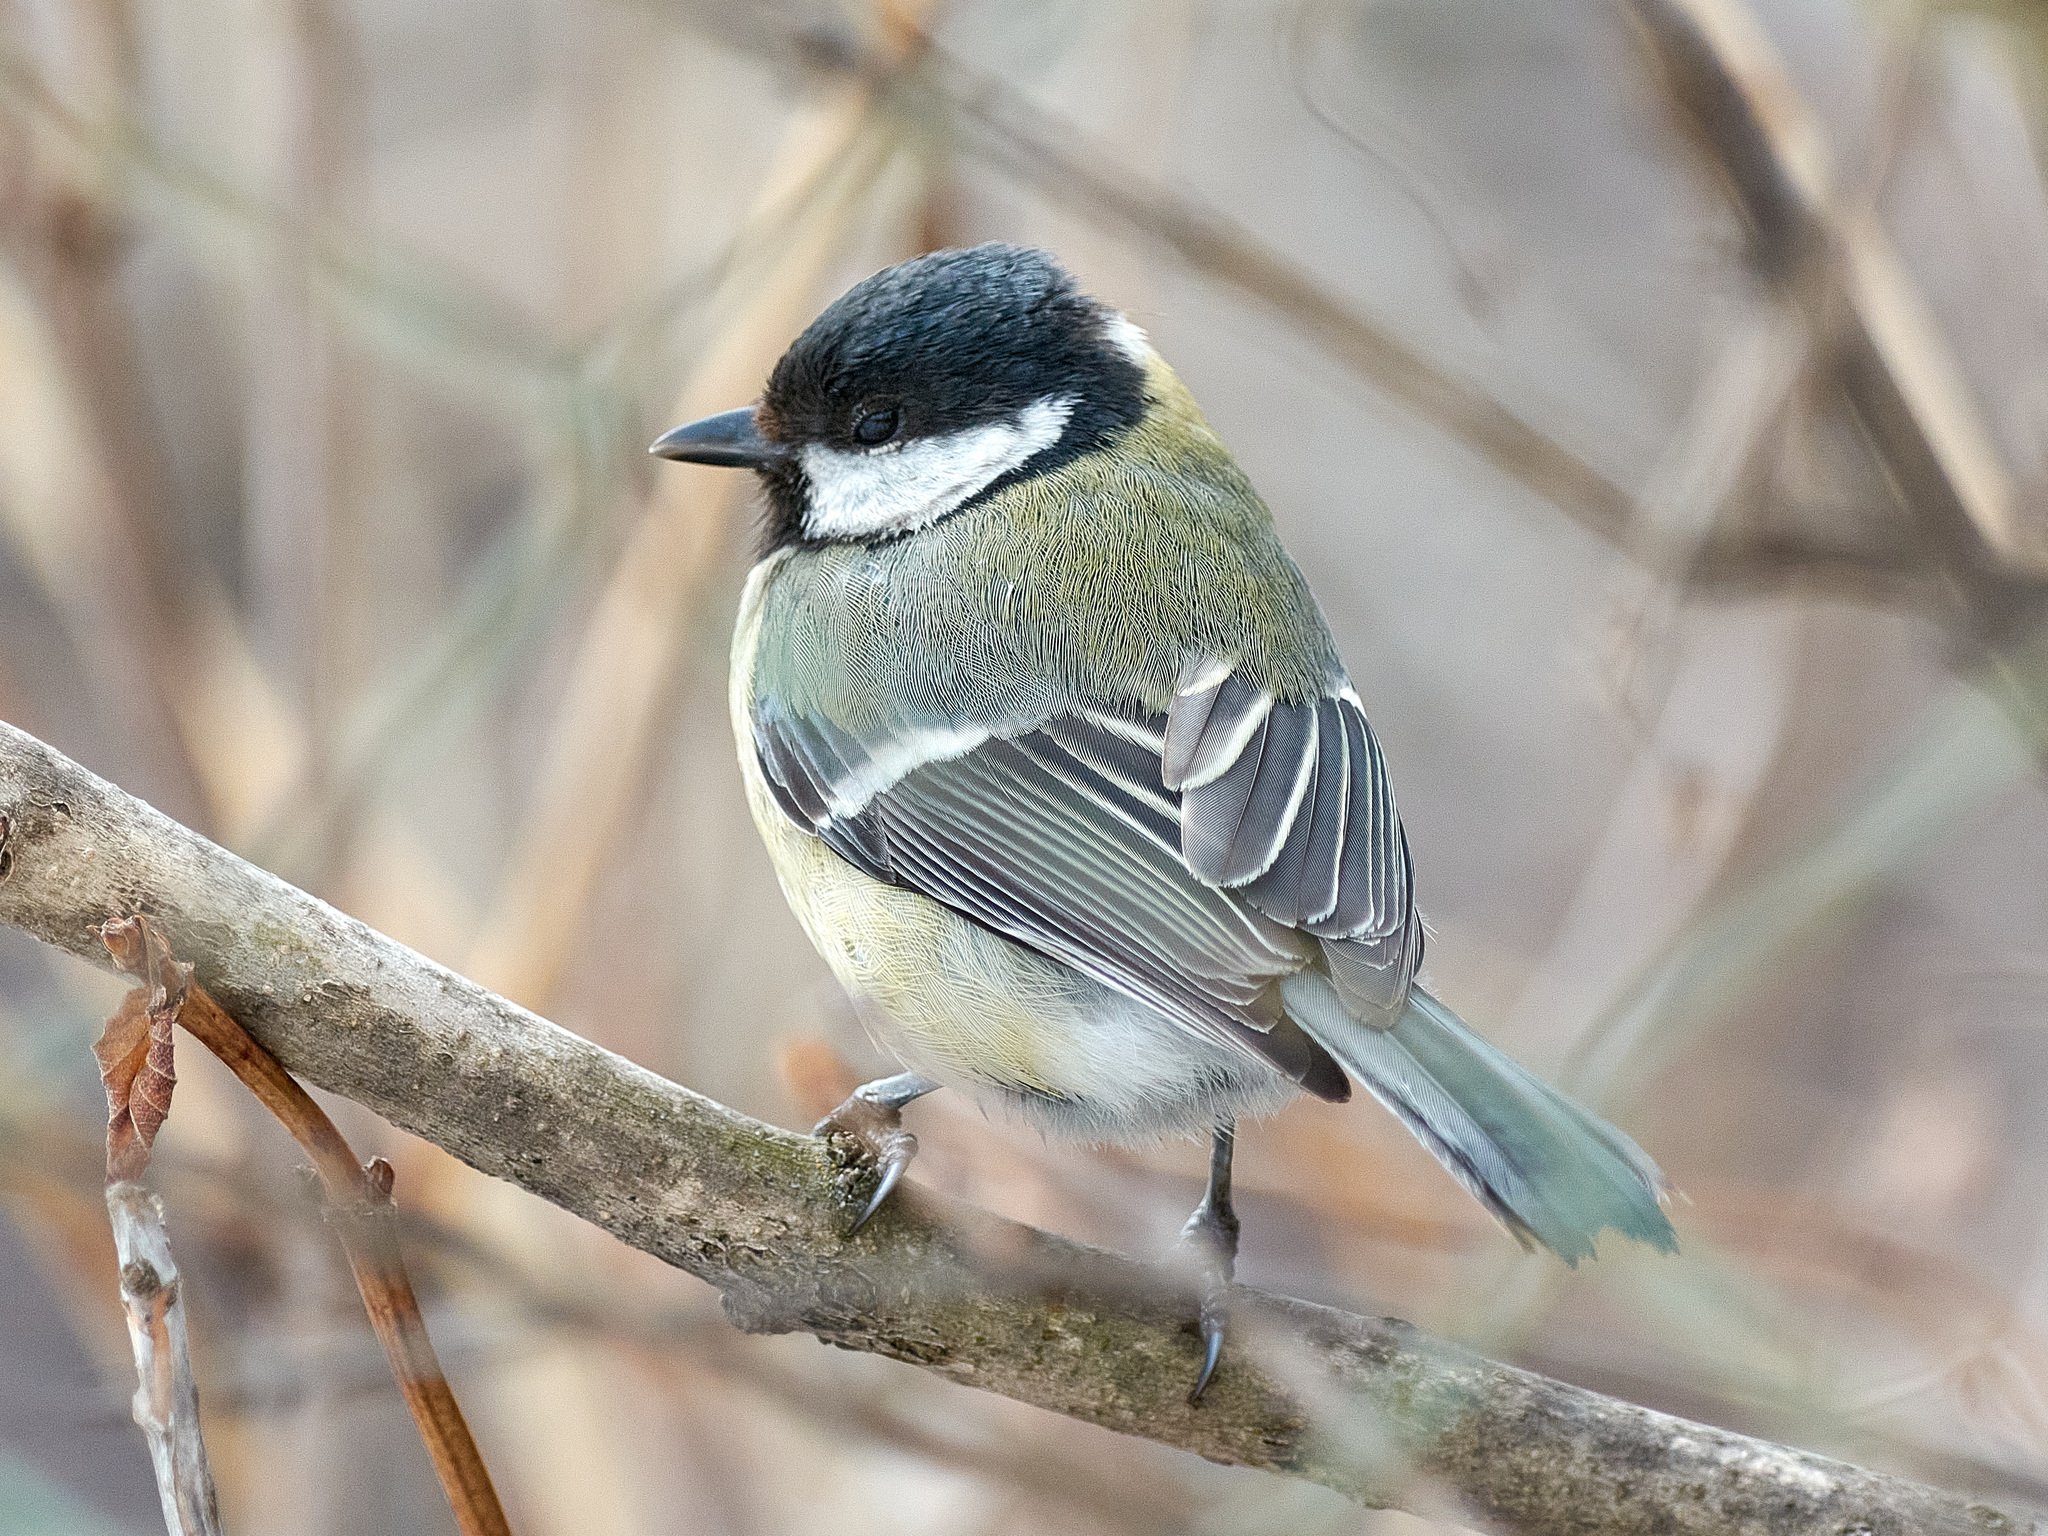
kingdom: Animalia
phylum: Chordata
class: Aves
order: Passeriformes
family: Paridae
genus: Parus
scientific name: Parus major
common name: Great tit
